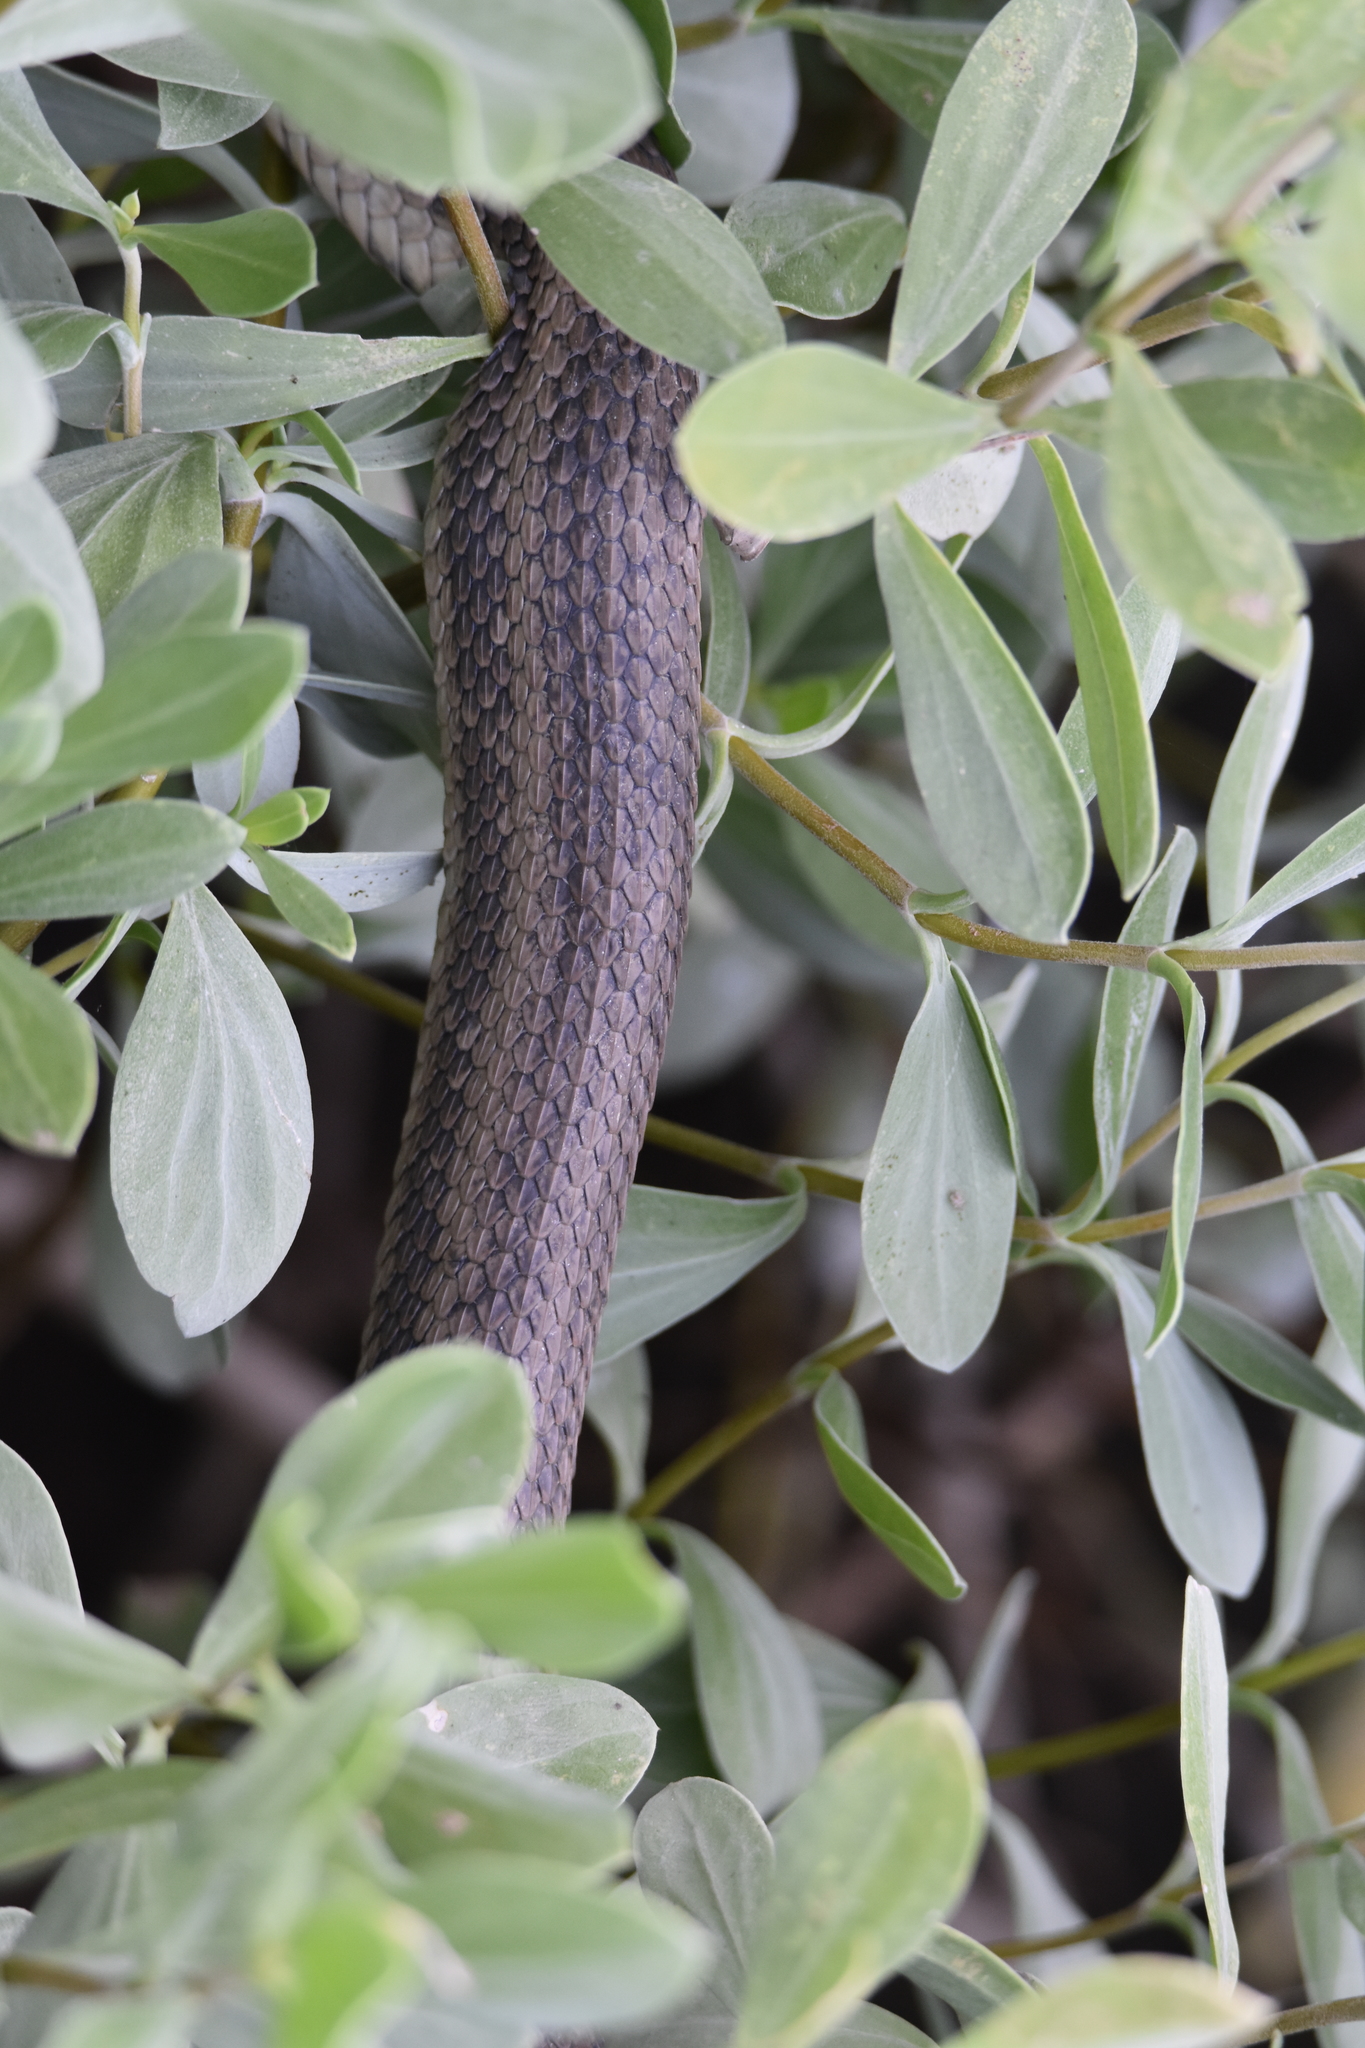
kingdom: Animalia
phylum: Chordata
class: Squamata
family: Colubridae
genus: Nerodia
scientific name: Nerodia clarkii
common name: Atlantic saltmarsh snake
